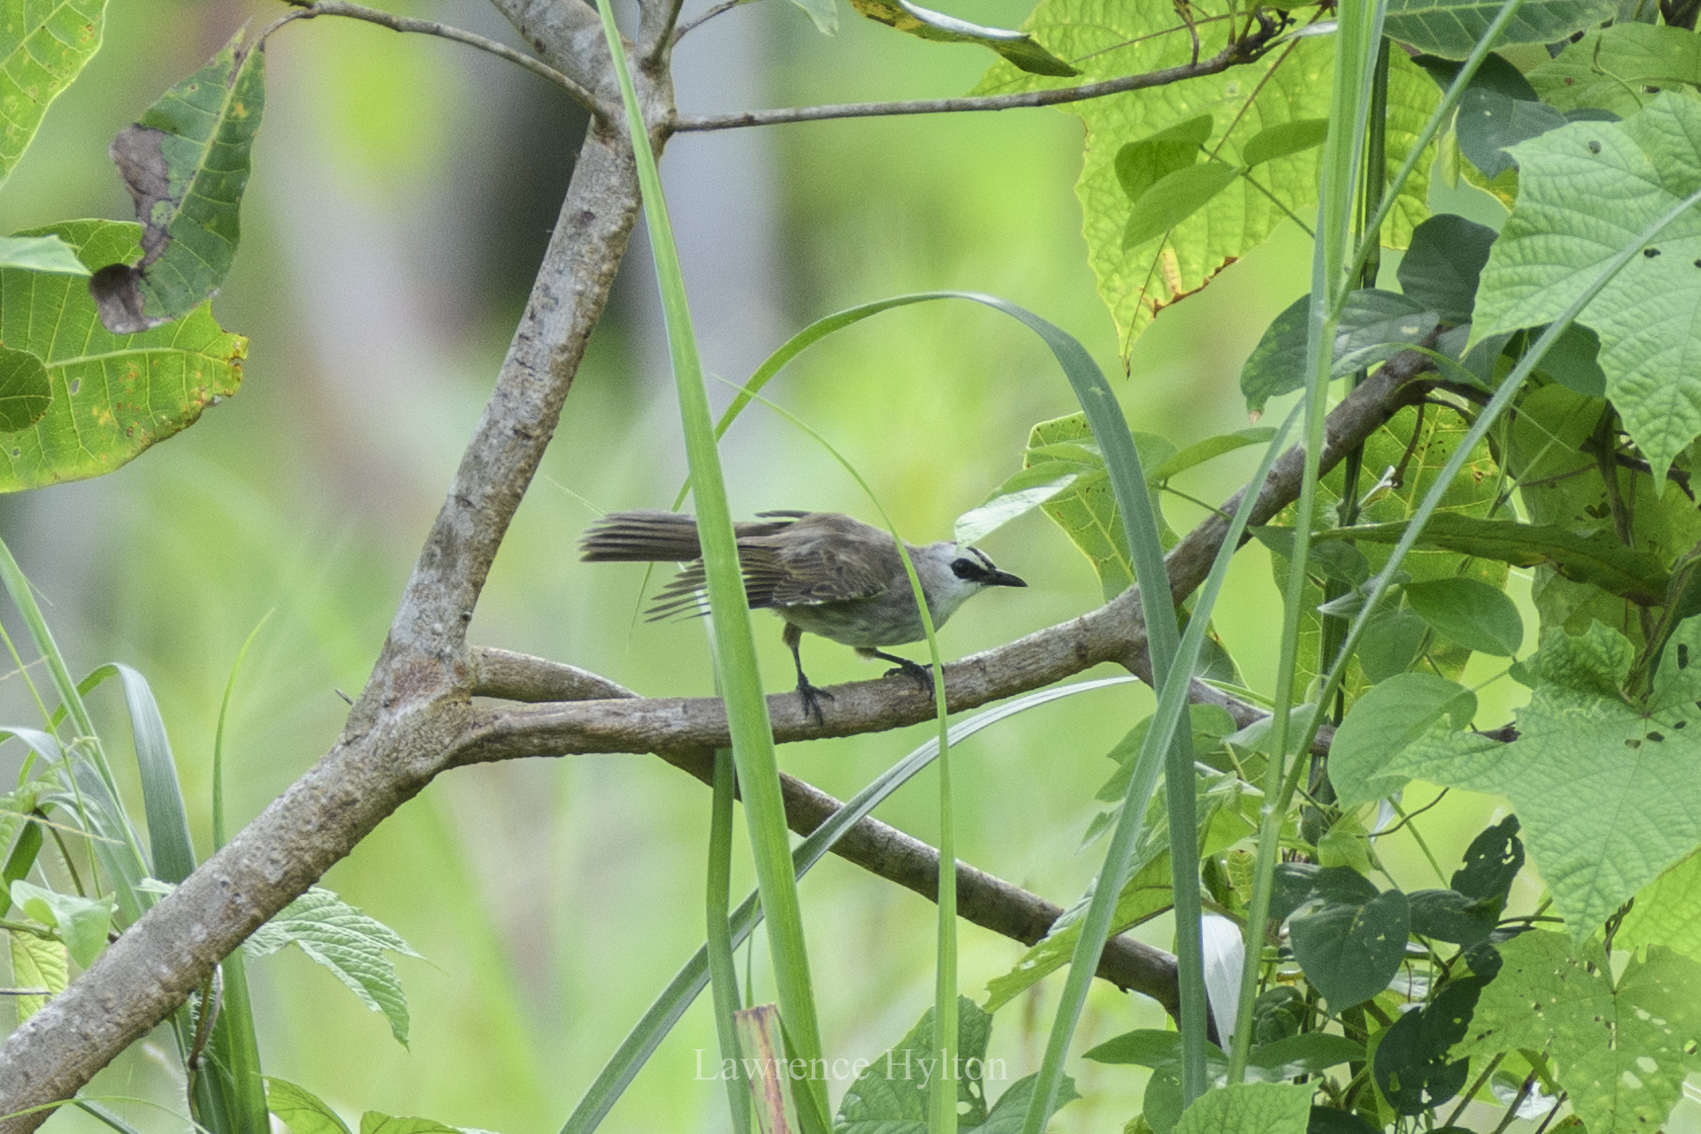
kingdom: Animalia
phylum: Chordata
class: Aves
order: Passeriformes
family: Pycnonotidae
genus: Pycnonotus
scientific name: Pycnonotus goiavier
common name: Yellow-vented bulbul
